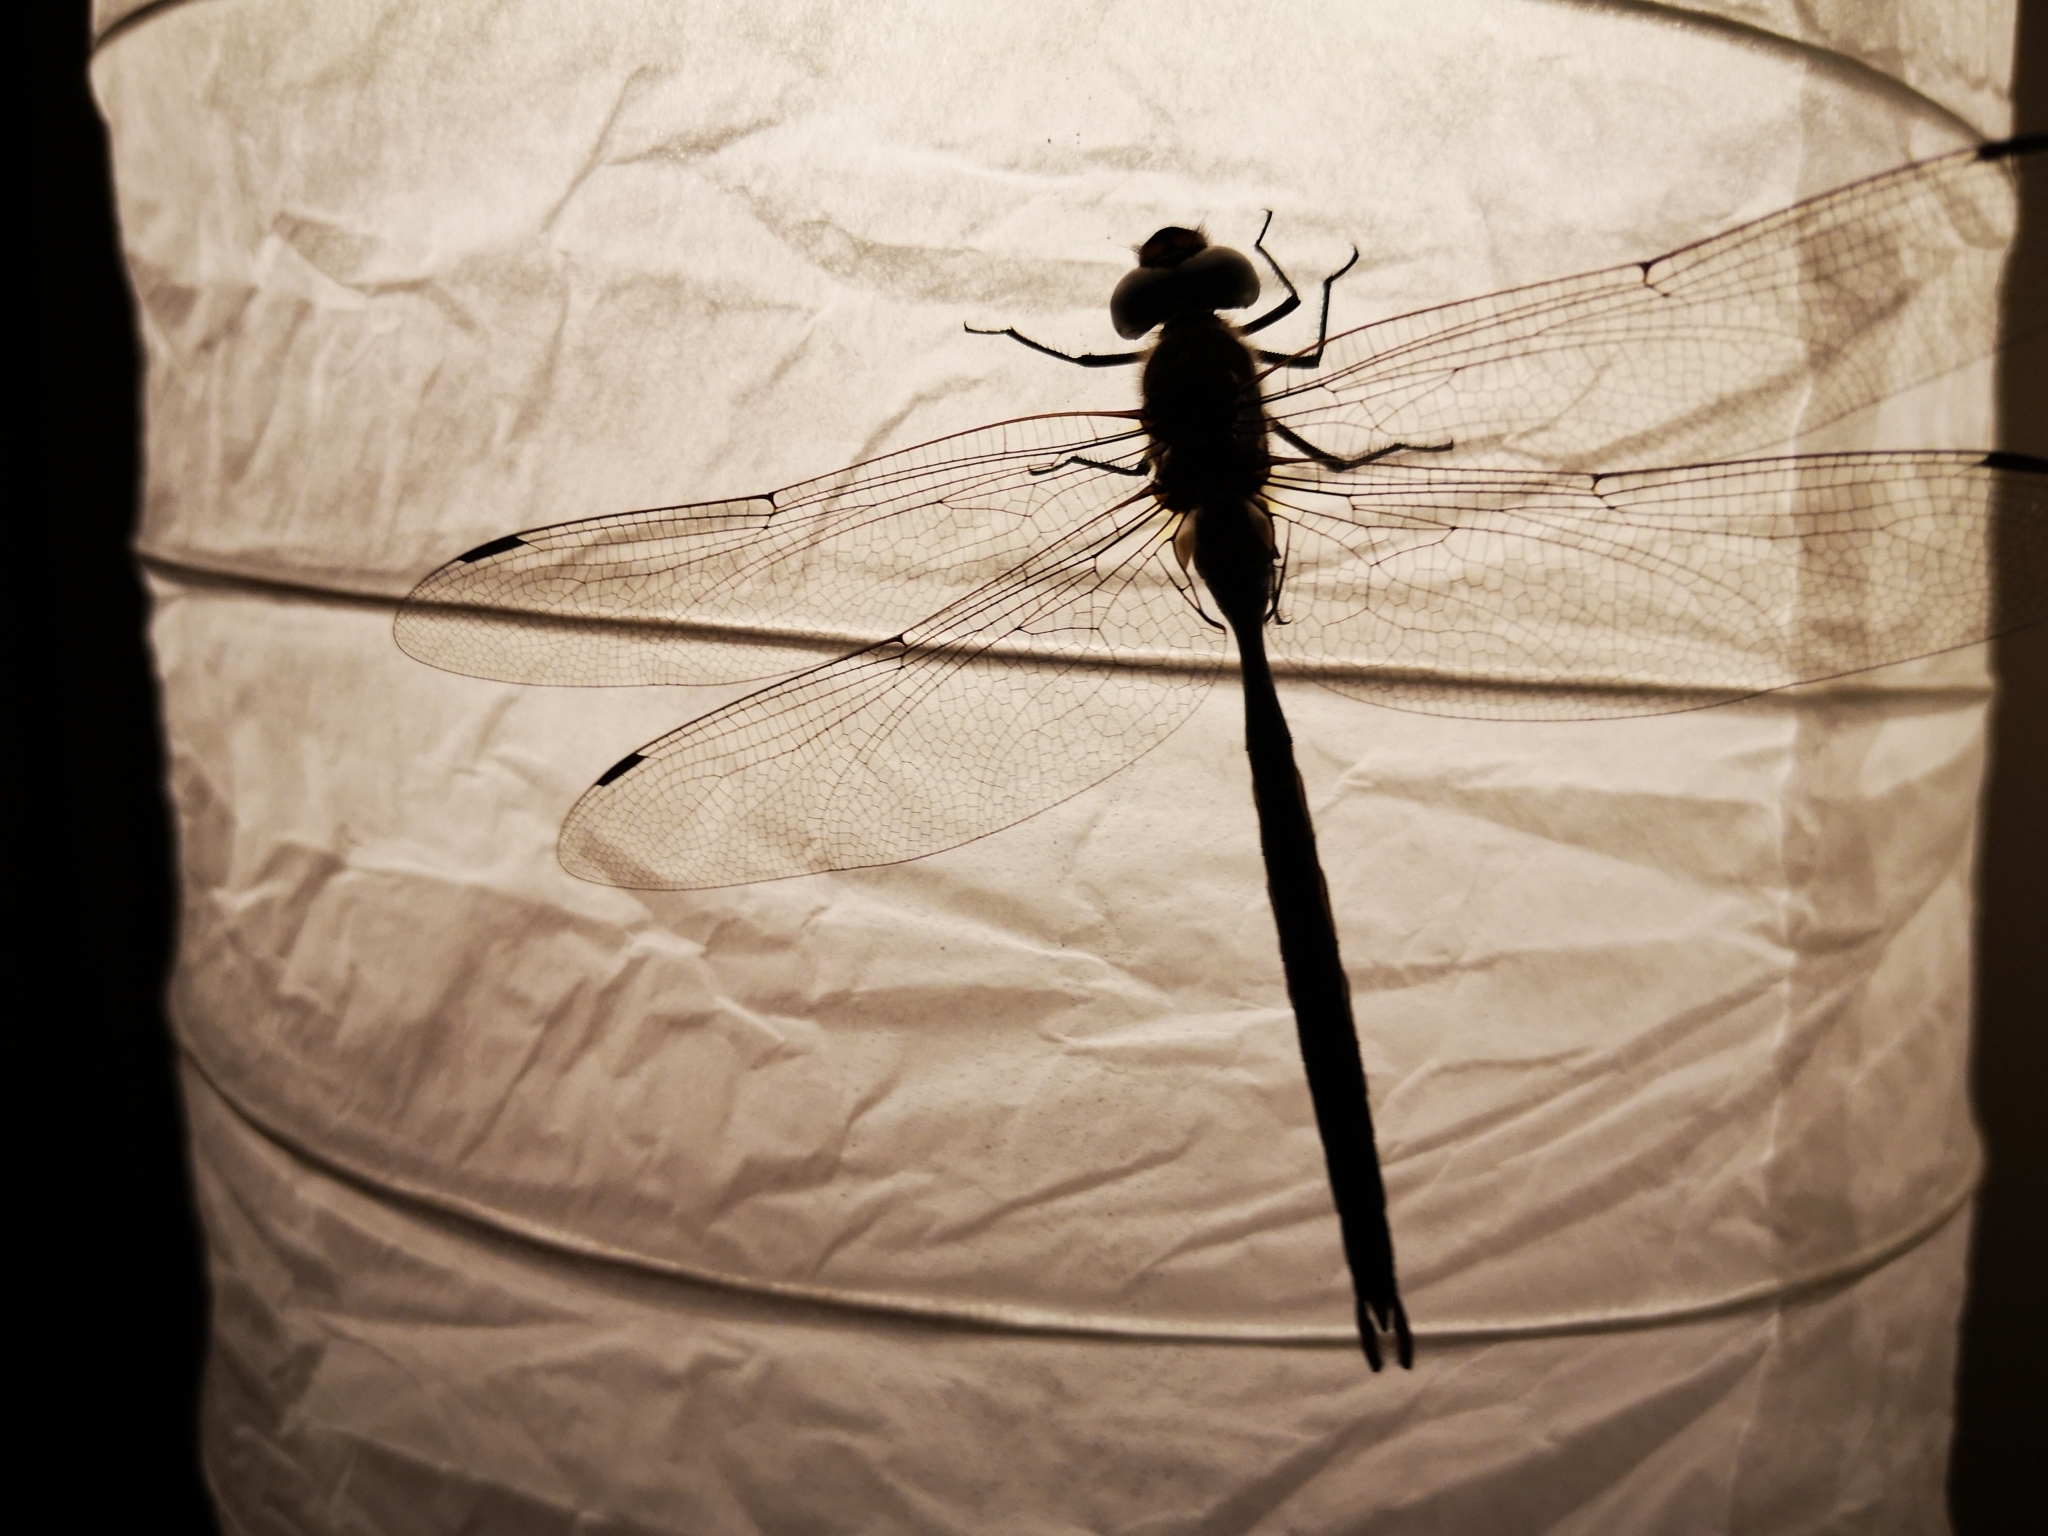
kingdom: Animalia
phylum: Arthropoda
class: Insecta
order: Odonata
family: Aeshnidae
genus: Aeshna
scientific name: Aeshna tuberculifera
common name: Aeschne à tubercules
